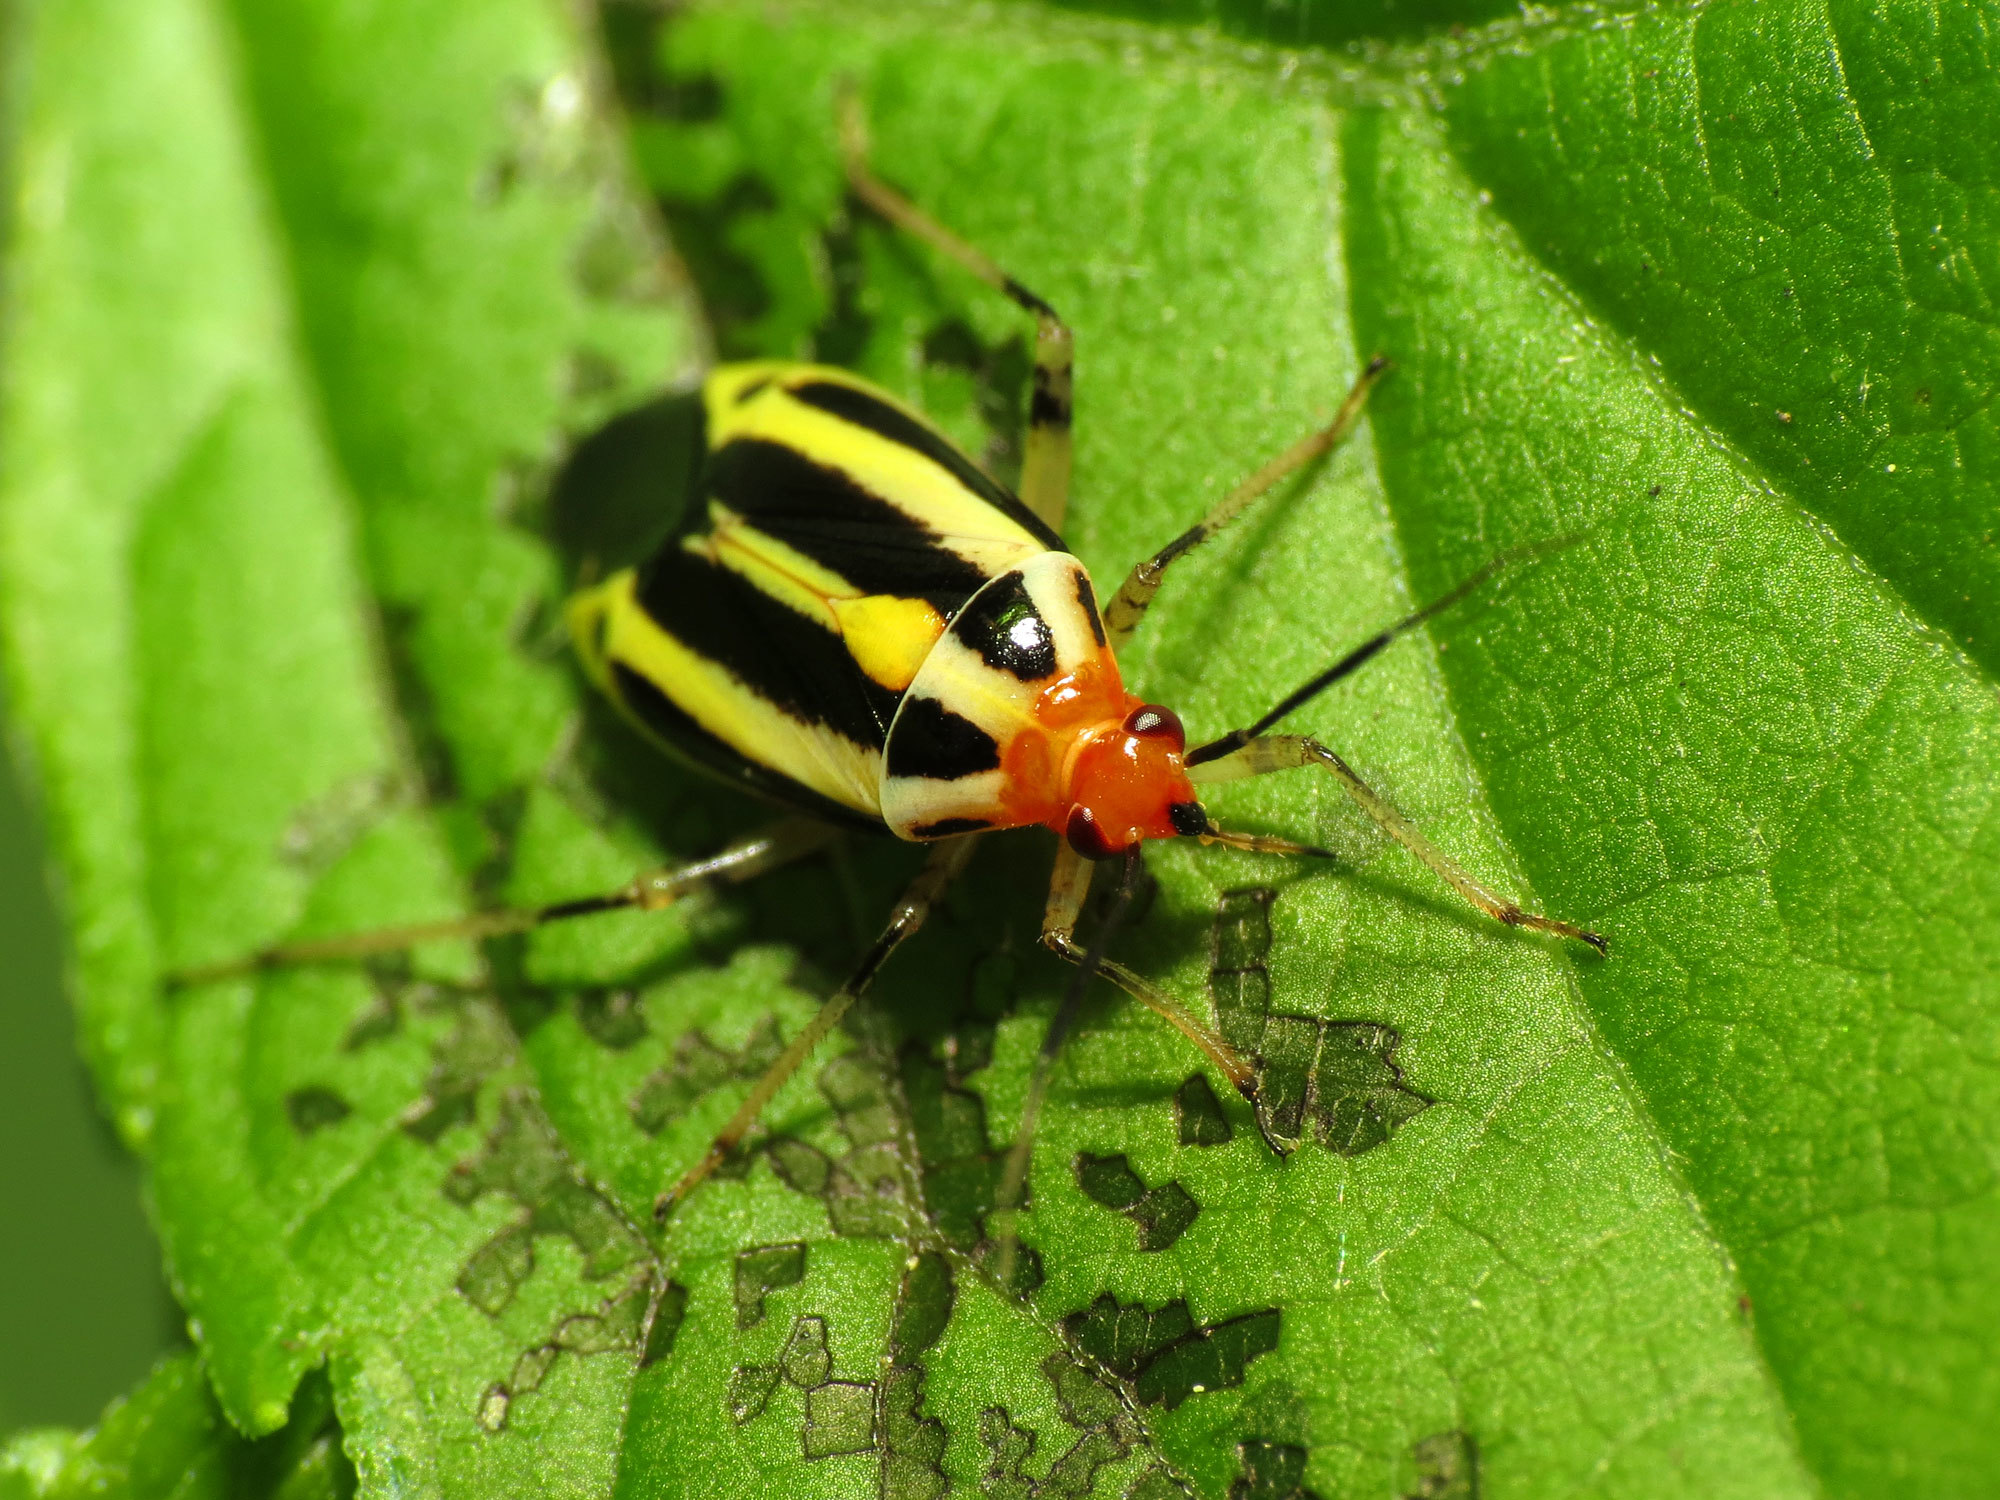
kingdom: Animalia
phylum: Arthropoda
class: Insecta
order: Hemiptera
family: Miridae
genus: Poecilocapsus
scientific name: Poecilocapsus lineatus
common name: Four-lined plant bug
